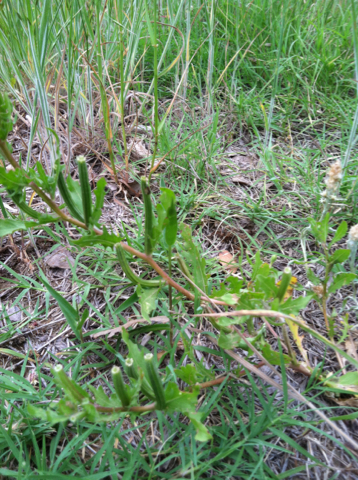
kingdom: Plantae
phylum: Tracheophyta
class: Magnoliopsida
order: Myrtales
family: Onagraceae
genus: Oenothera
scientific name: Oenothera laciniata
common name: Cut-leaved evening-primrose
